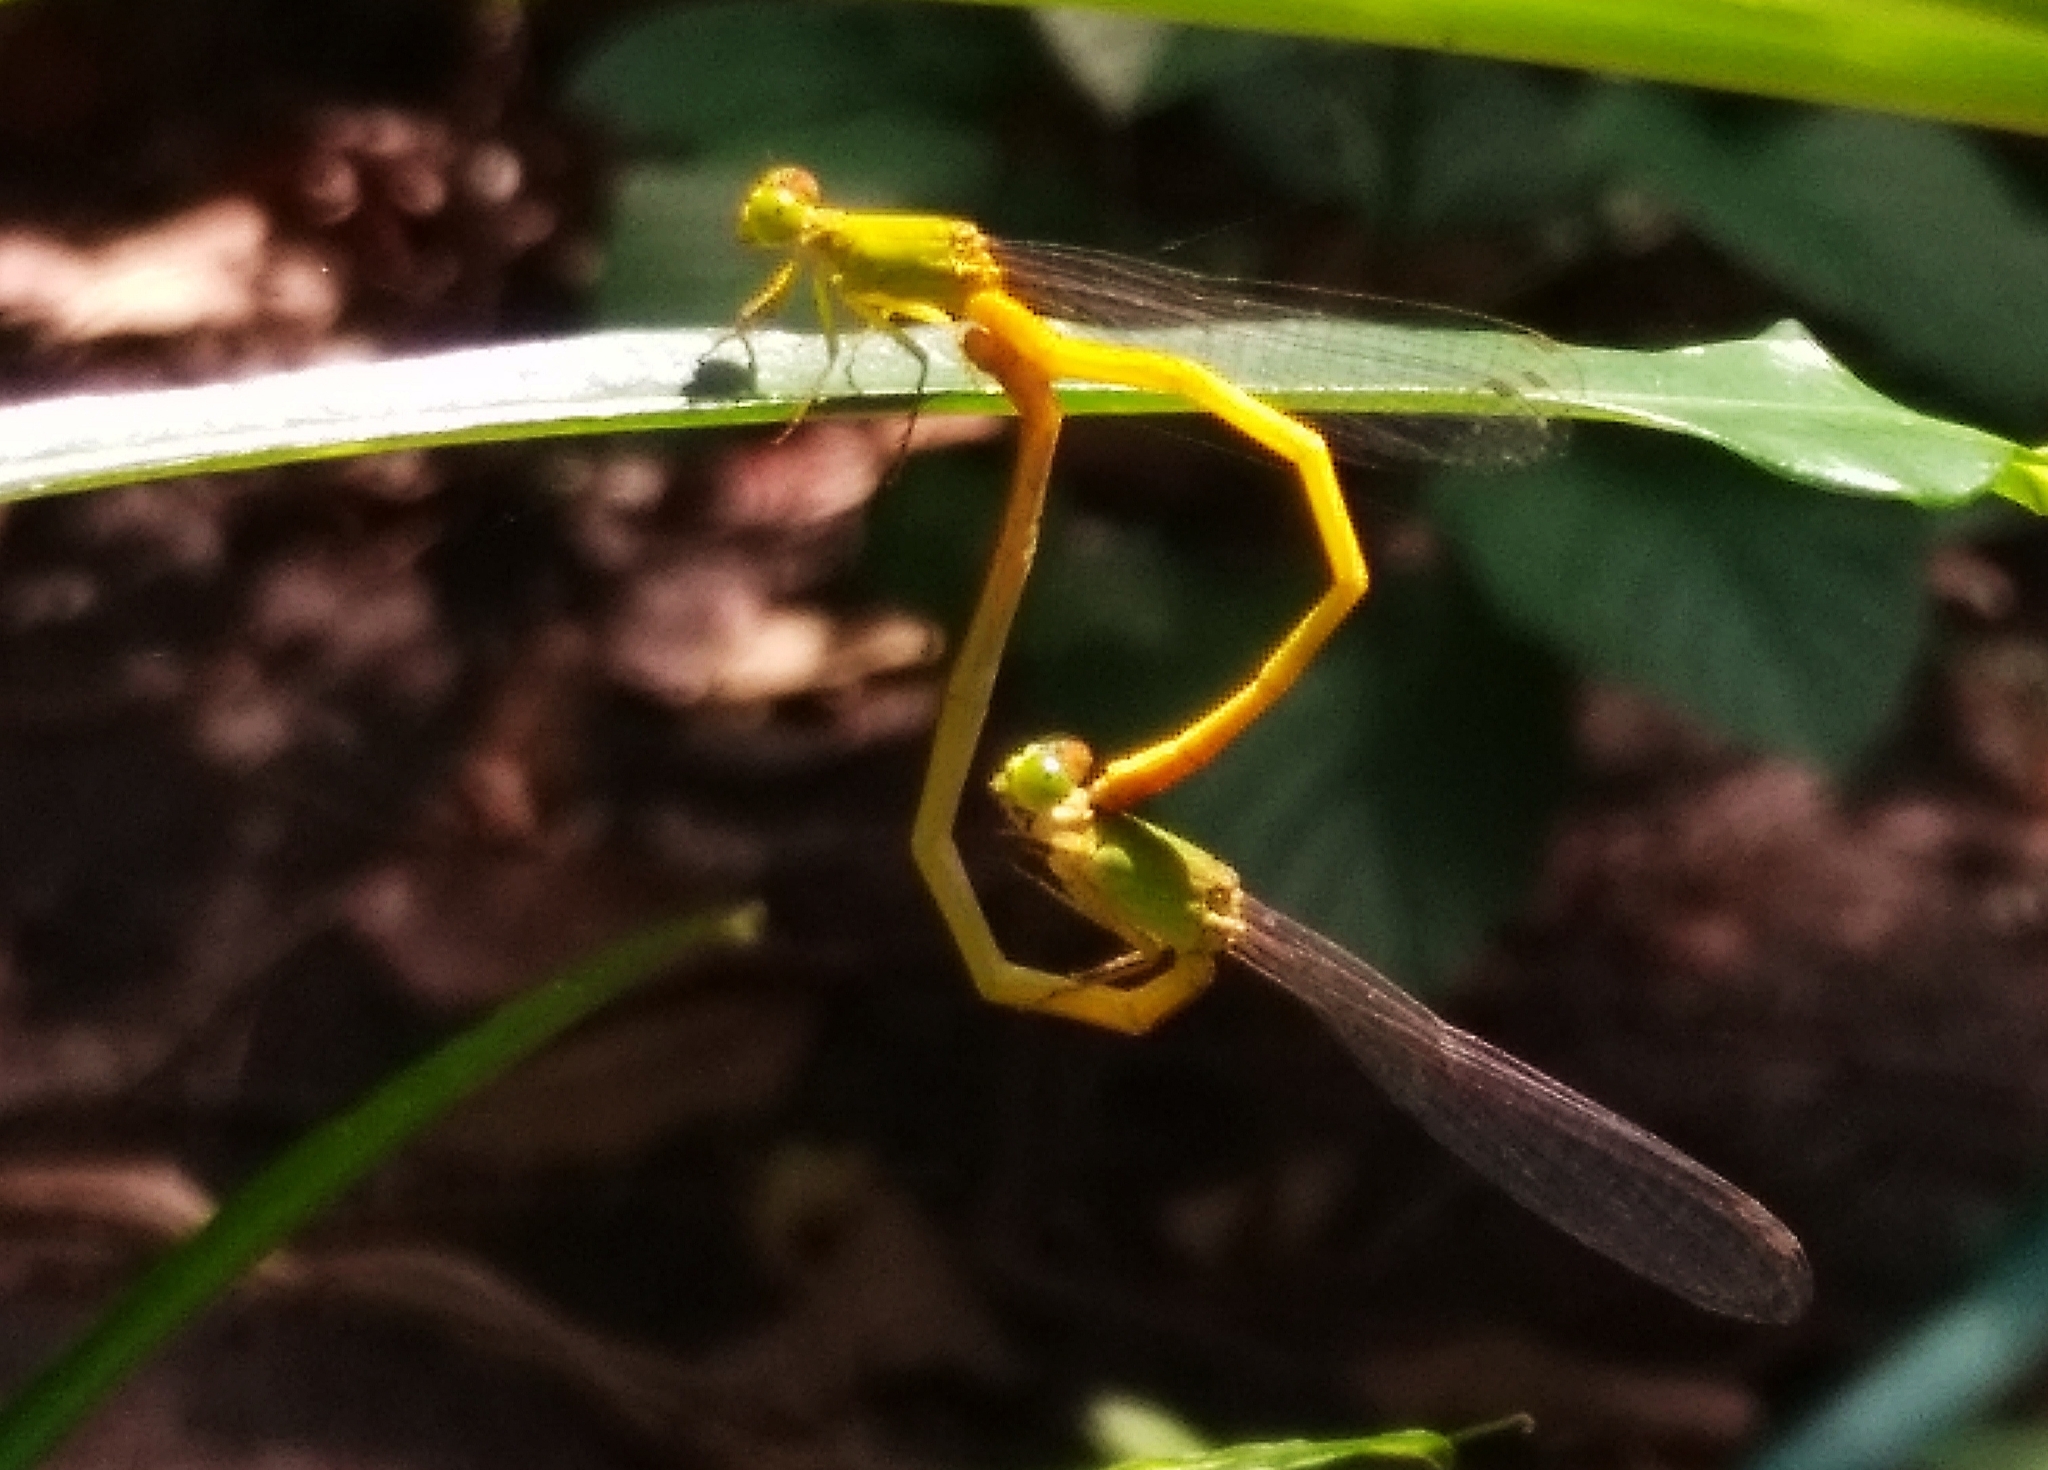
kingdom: Animalia
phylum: Arthropoda
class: Insecta
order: Odonata
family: Coenagrionidae
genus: Ceriagrion
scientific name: Ceriagrion coromandelianum
